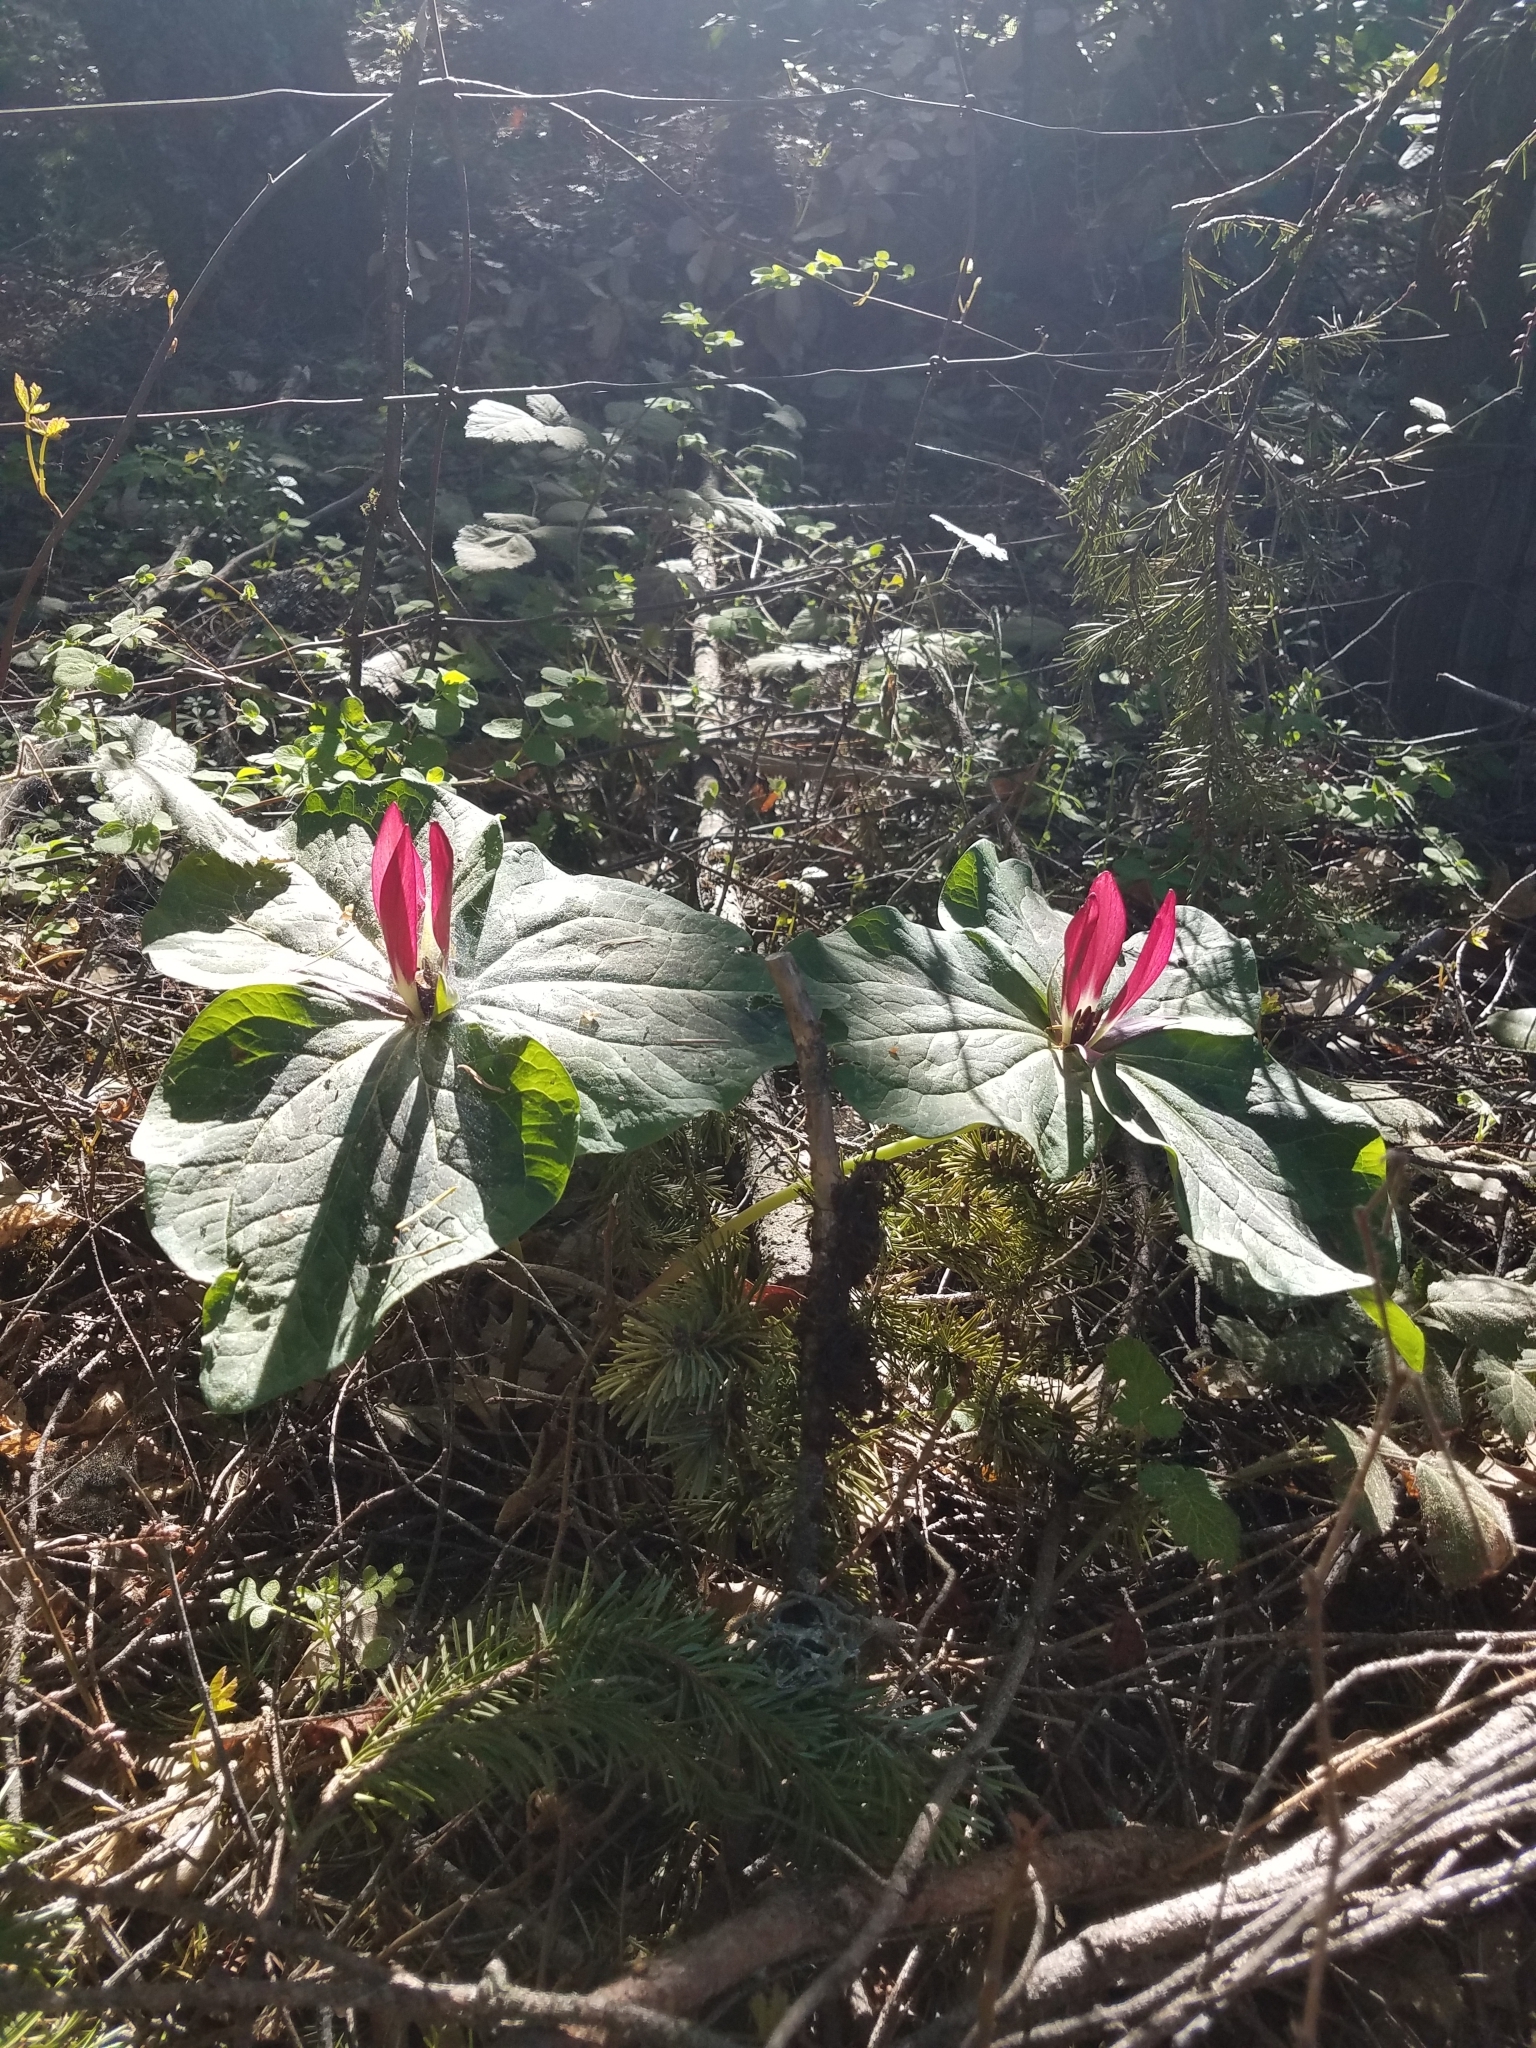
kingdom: Plantae
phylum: Tracheophyta
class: Liliopsida
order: Liliales
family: Melanthiaceae
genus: Trillium
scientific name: Trillium chloropetalum
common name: Giant trillium
